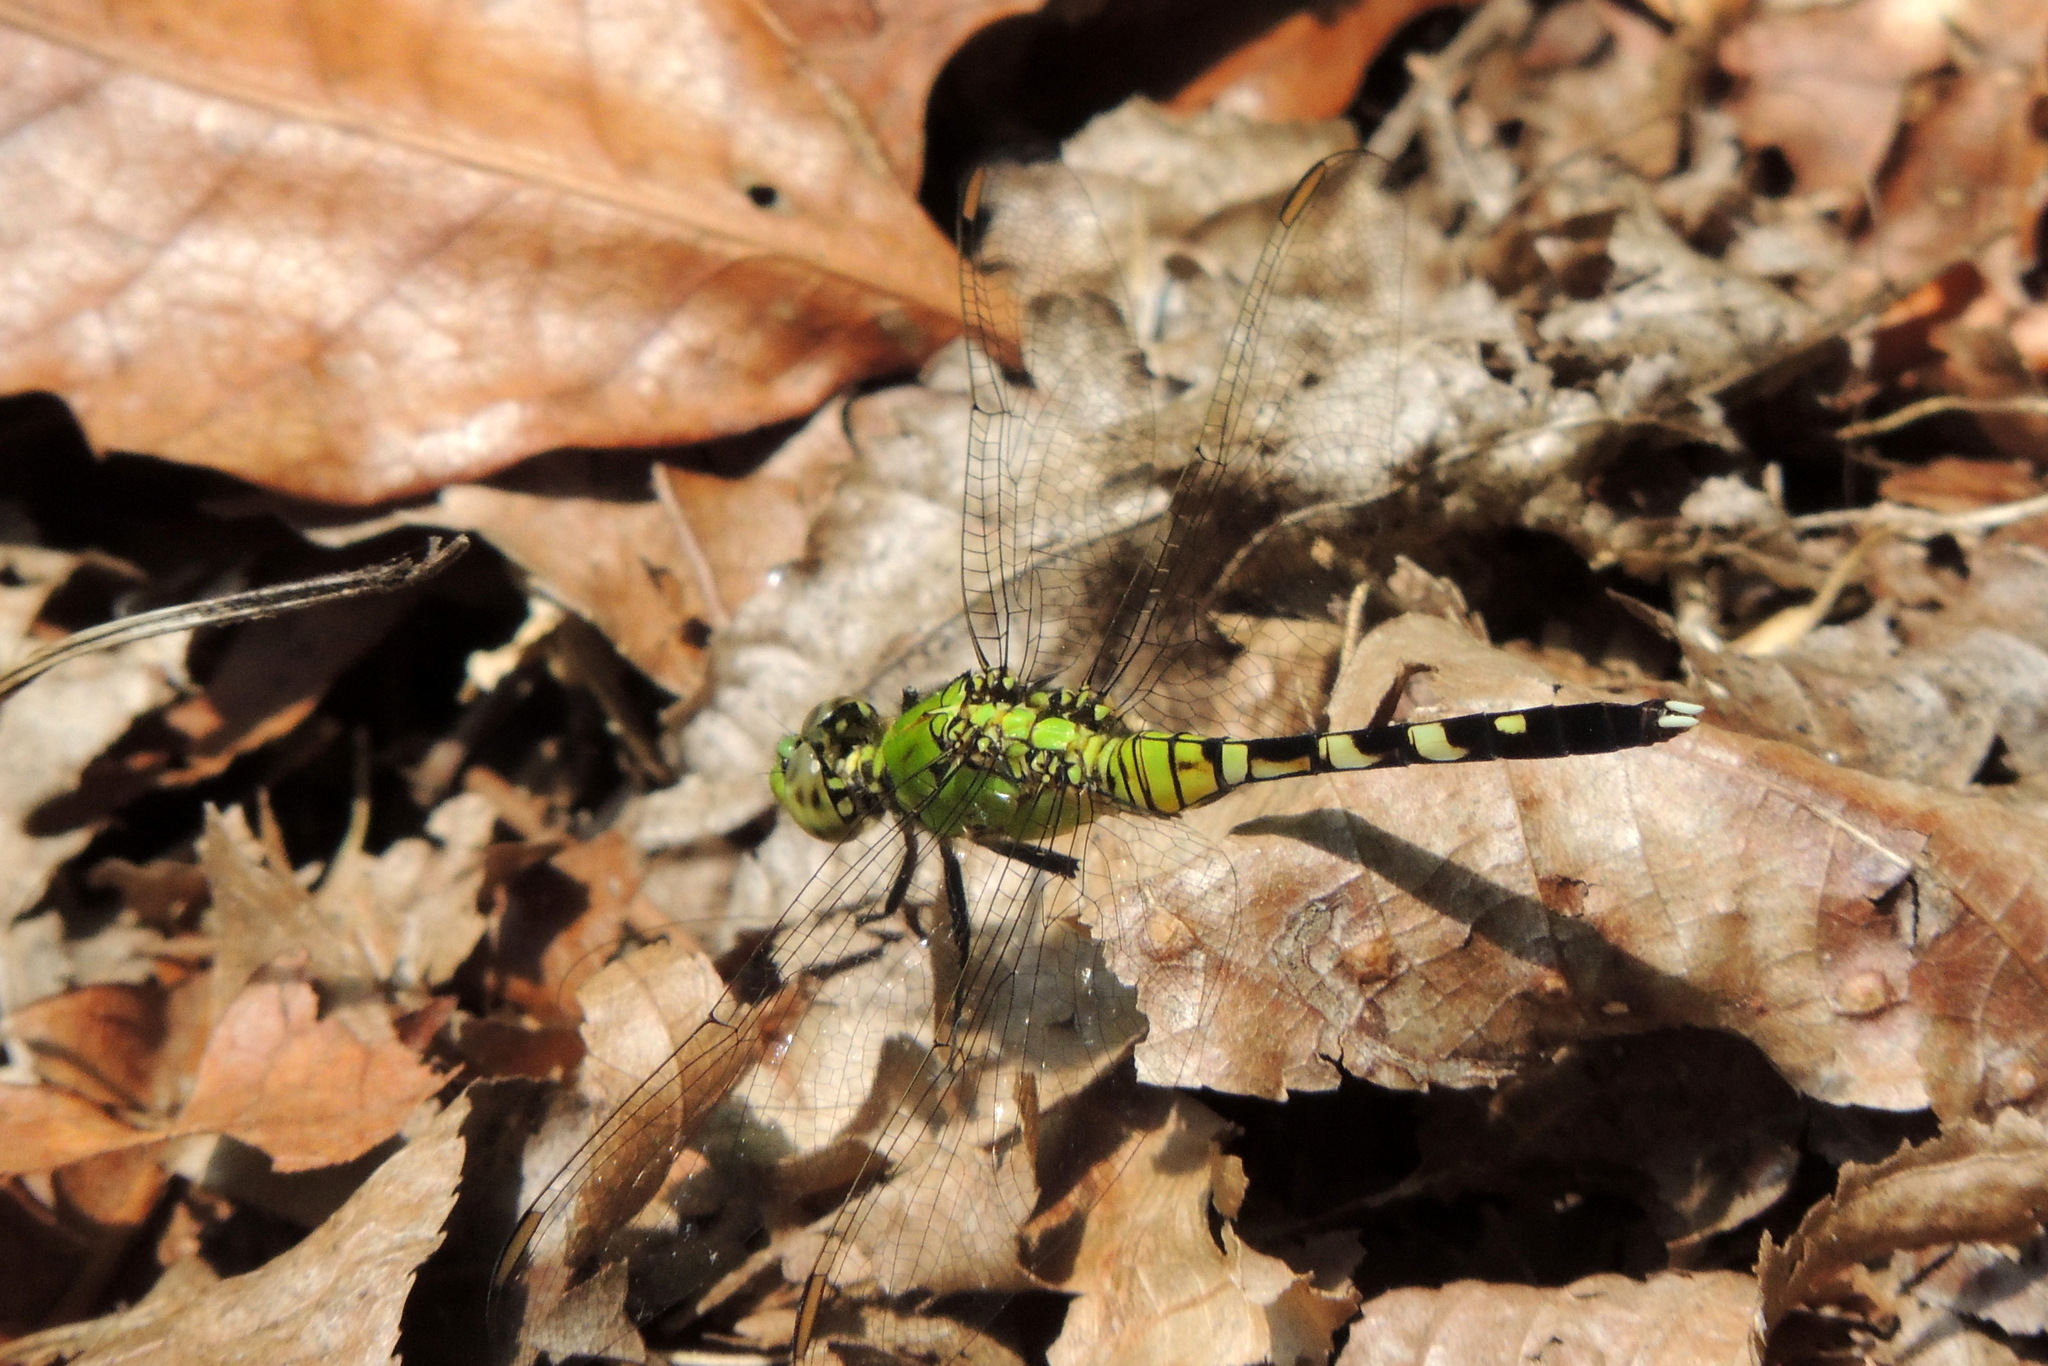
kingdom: Animalia
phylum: Arthropoda
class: Insecta
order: Odonata
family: Libellulidae
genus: Erythemis
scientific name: Erythemis simplicicollis
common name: Eastern pondhawk
